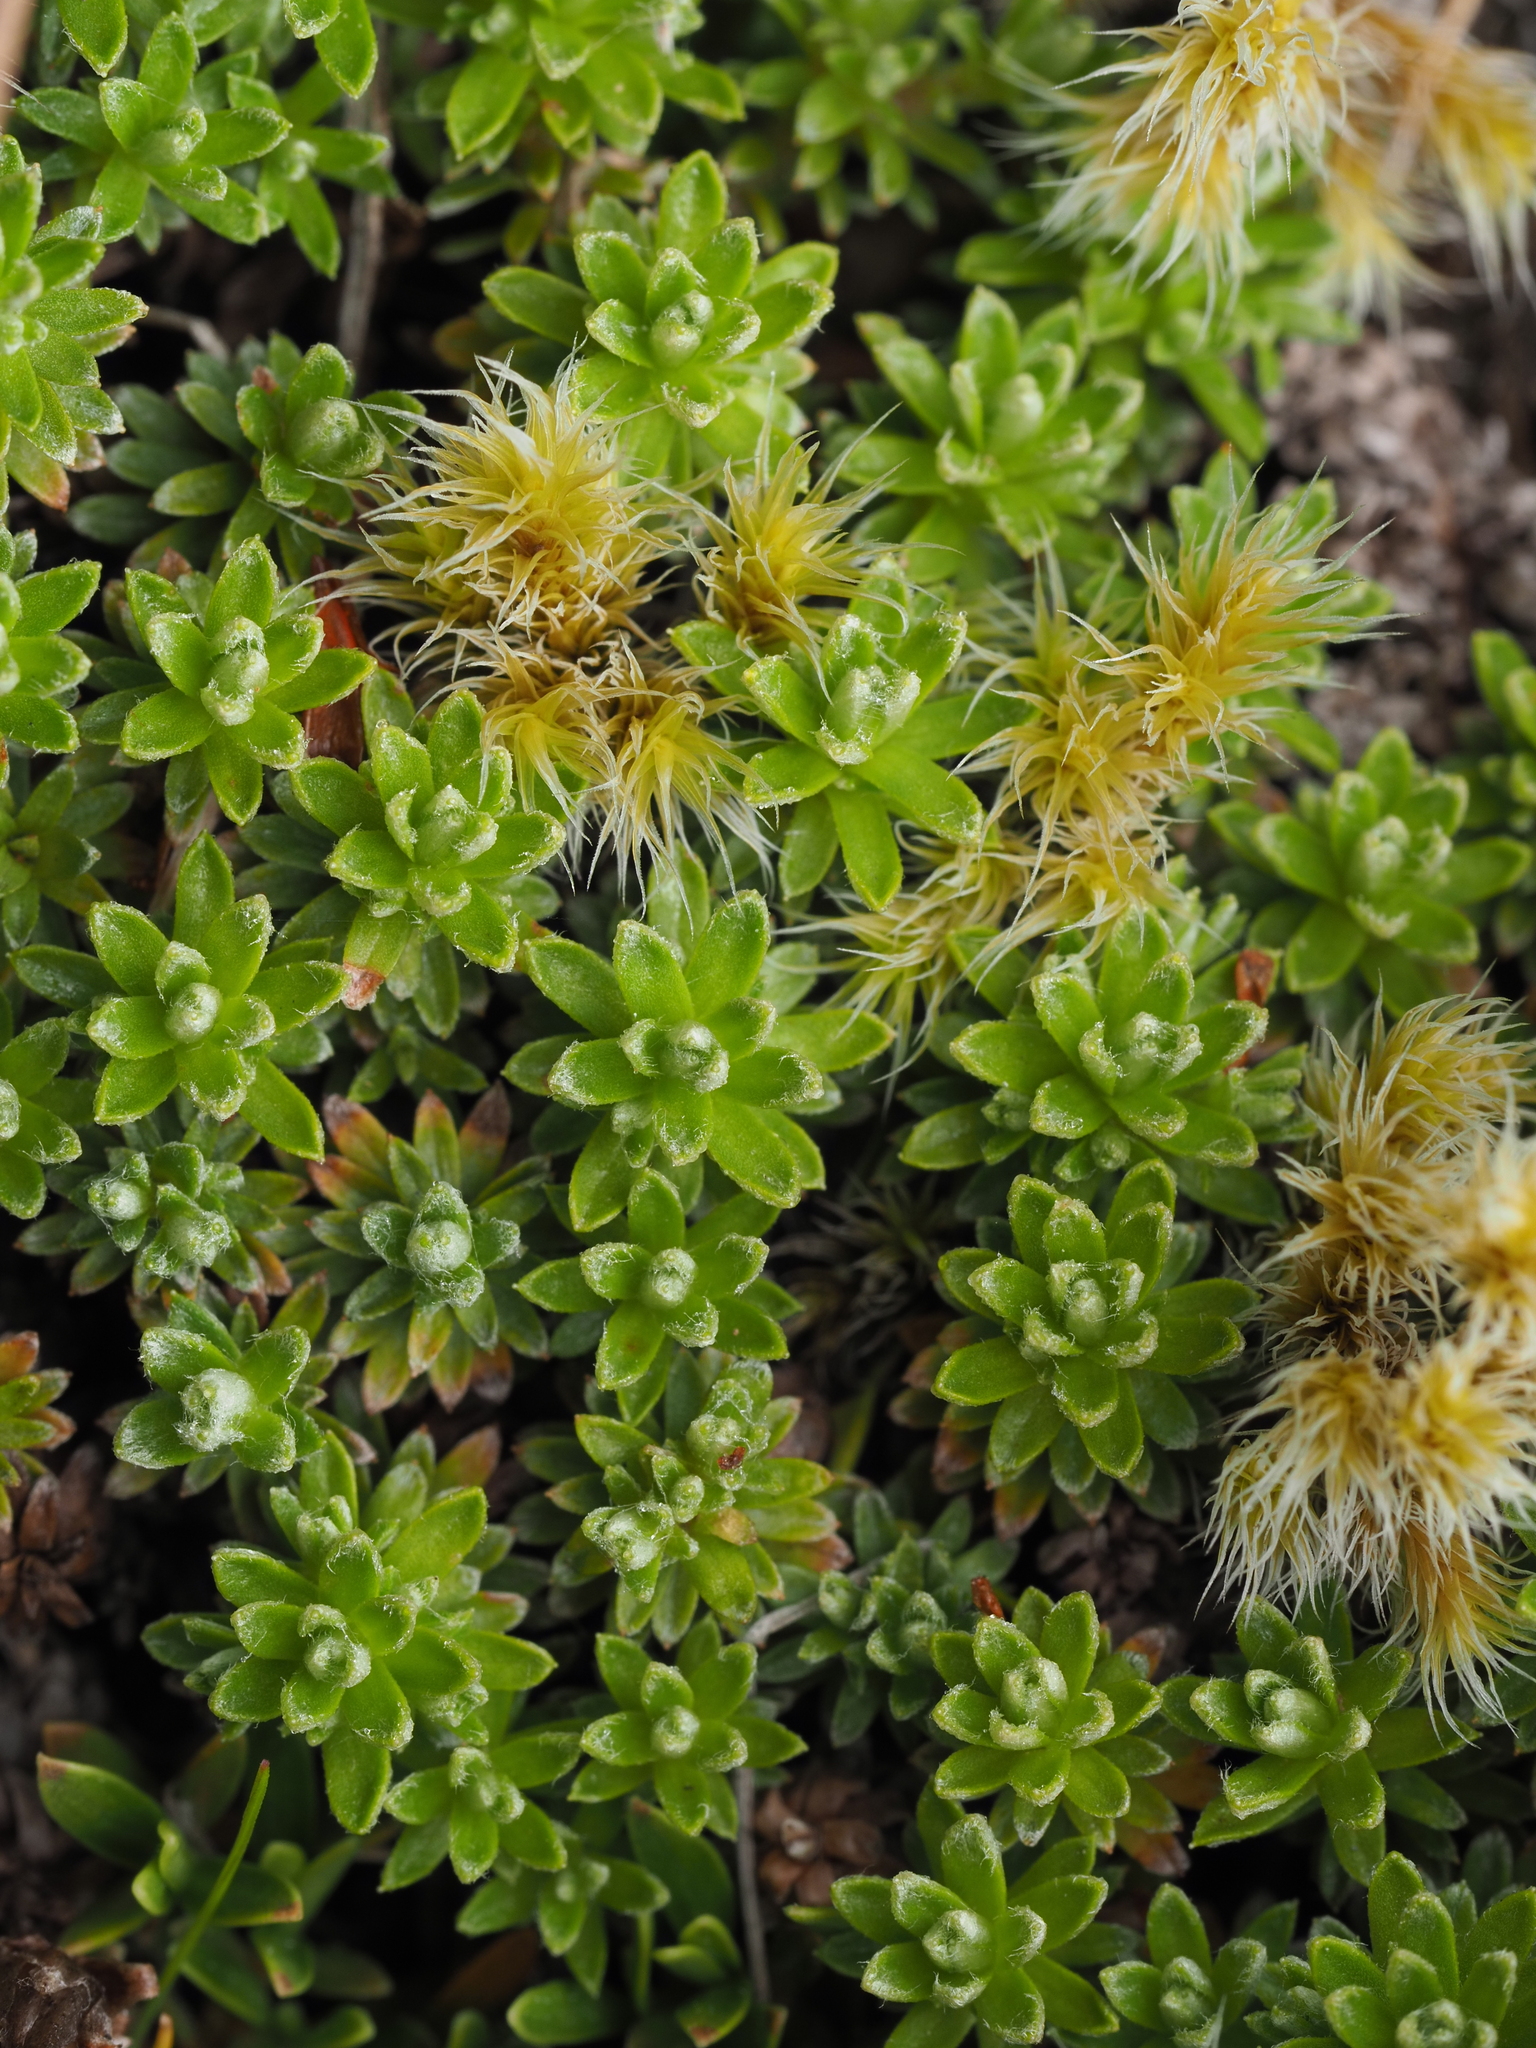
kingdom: Plantae
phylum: Tracheophyta
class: Magnoliopsida
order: Asterales
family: Asteraceae
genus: Raoulia
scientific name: Raoulia subsericea
